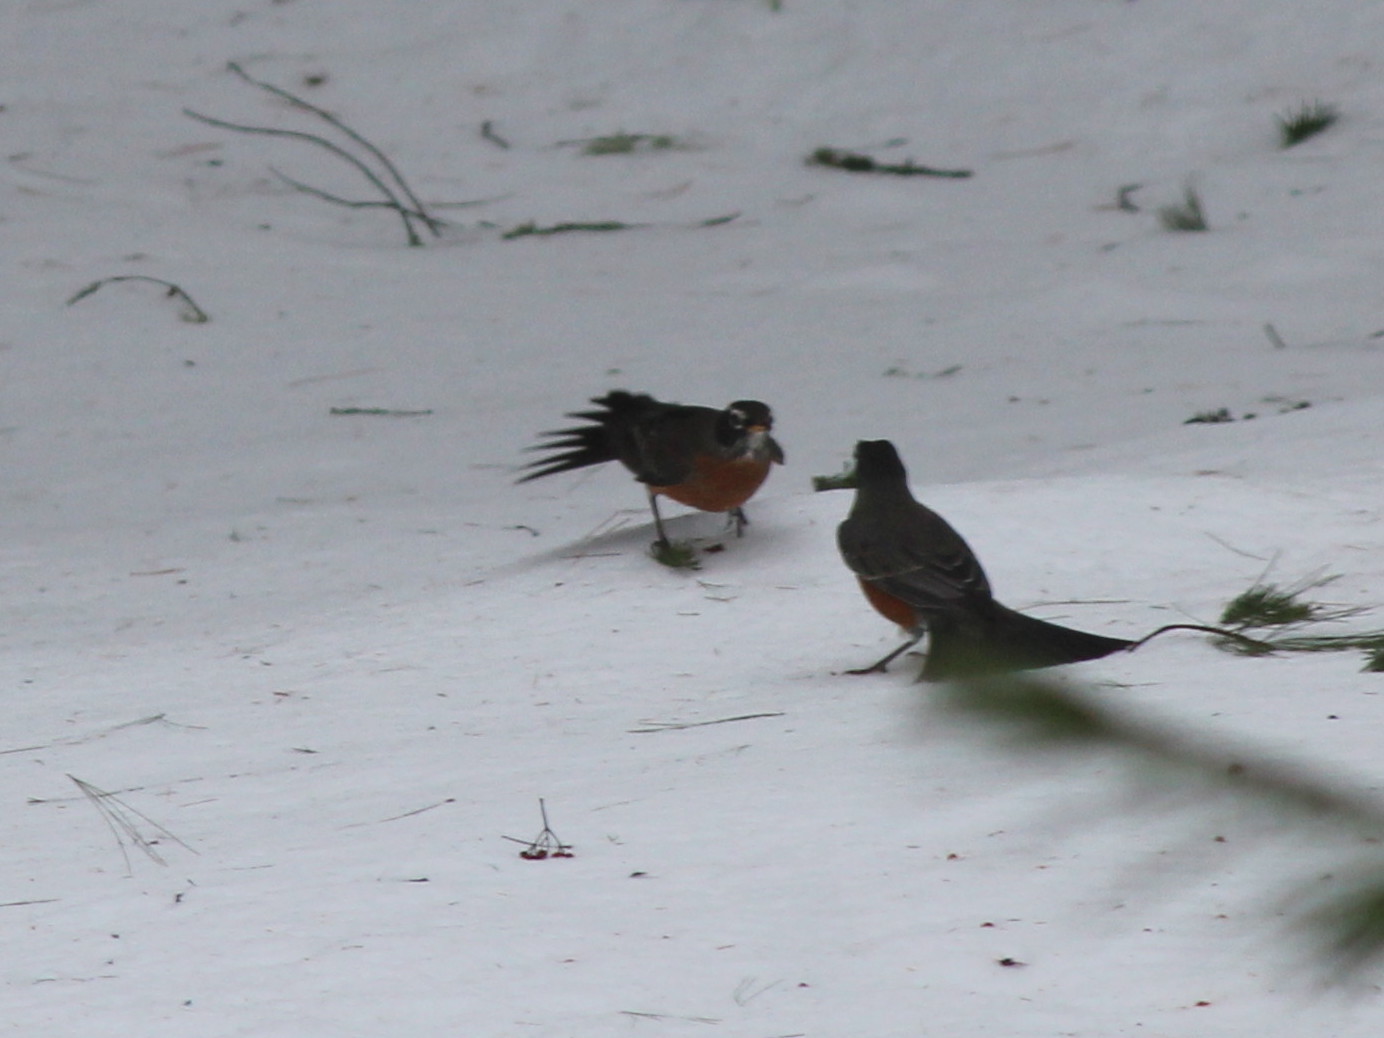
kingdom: Animalia
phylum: Chordata
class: Aves
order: Passeriformes
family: Turdidae
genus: Turdus
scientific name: Turdus migratorius
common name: American robin
